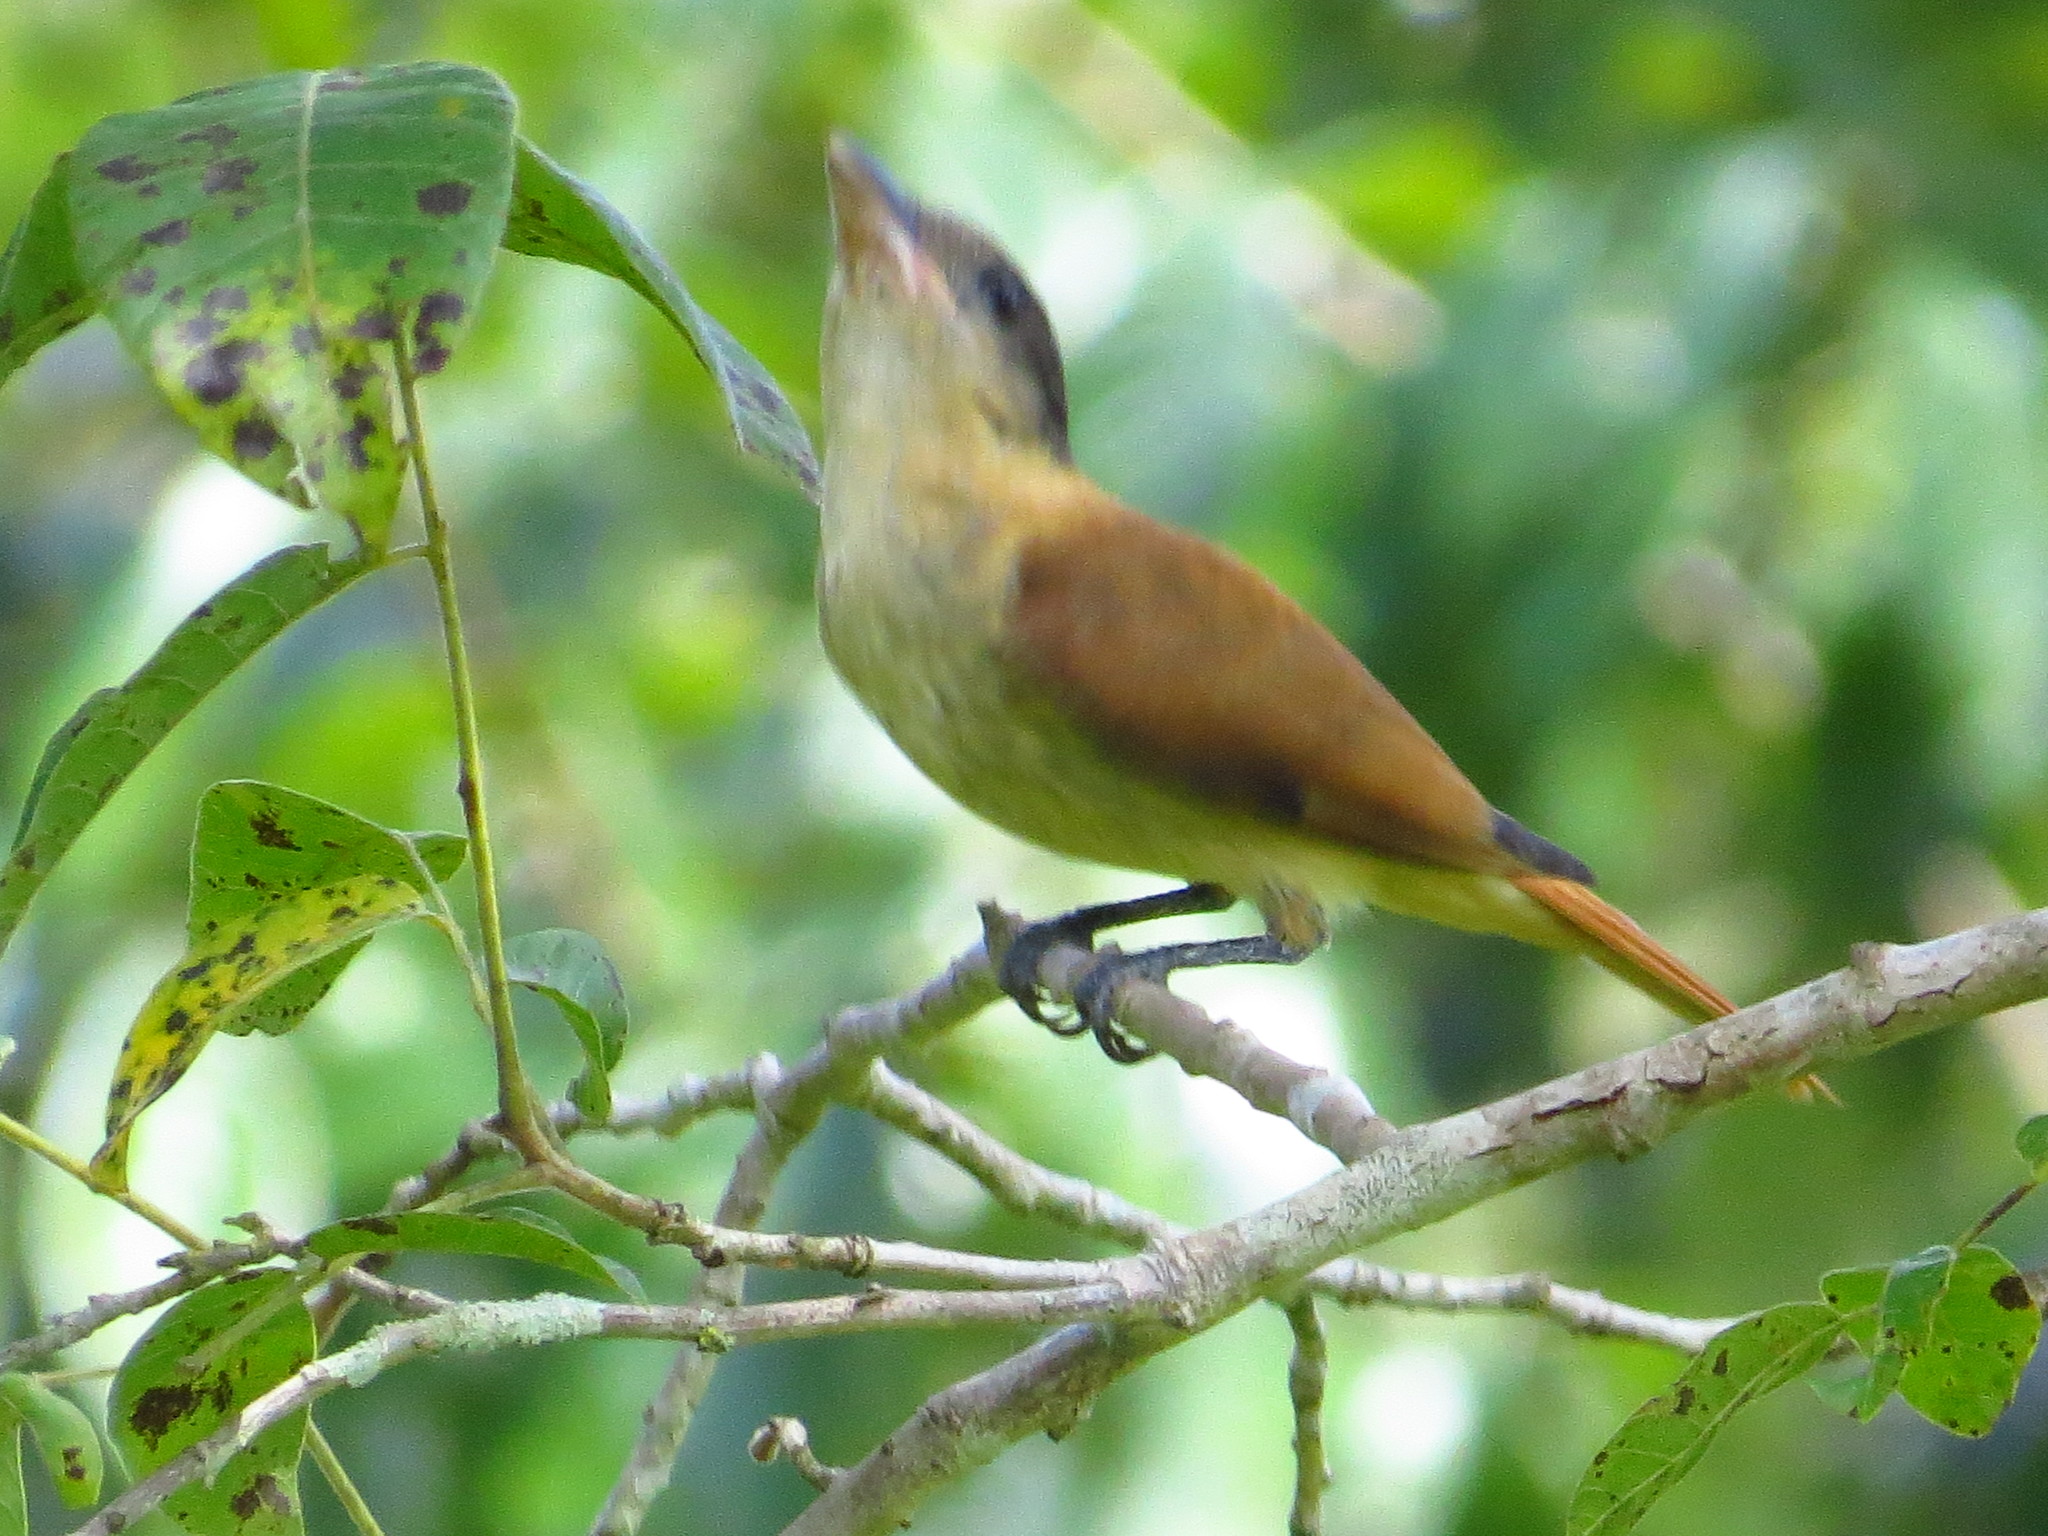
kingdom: Animalia
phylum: Chordata
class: Aves
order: Passeriformes
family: Cotingidae
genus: Pachyramphus
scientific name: Pachyramphus validus
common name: Crested becard
